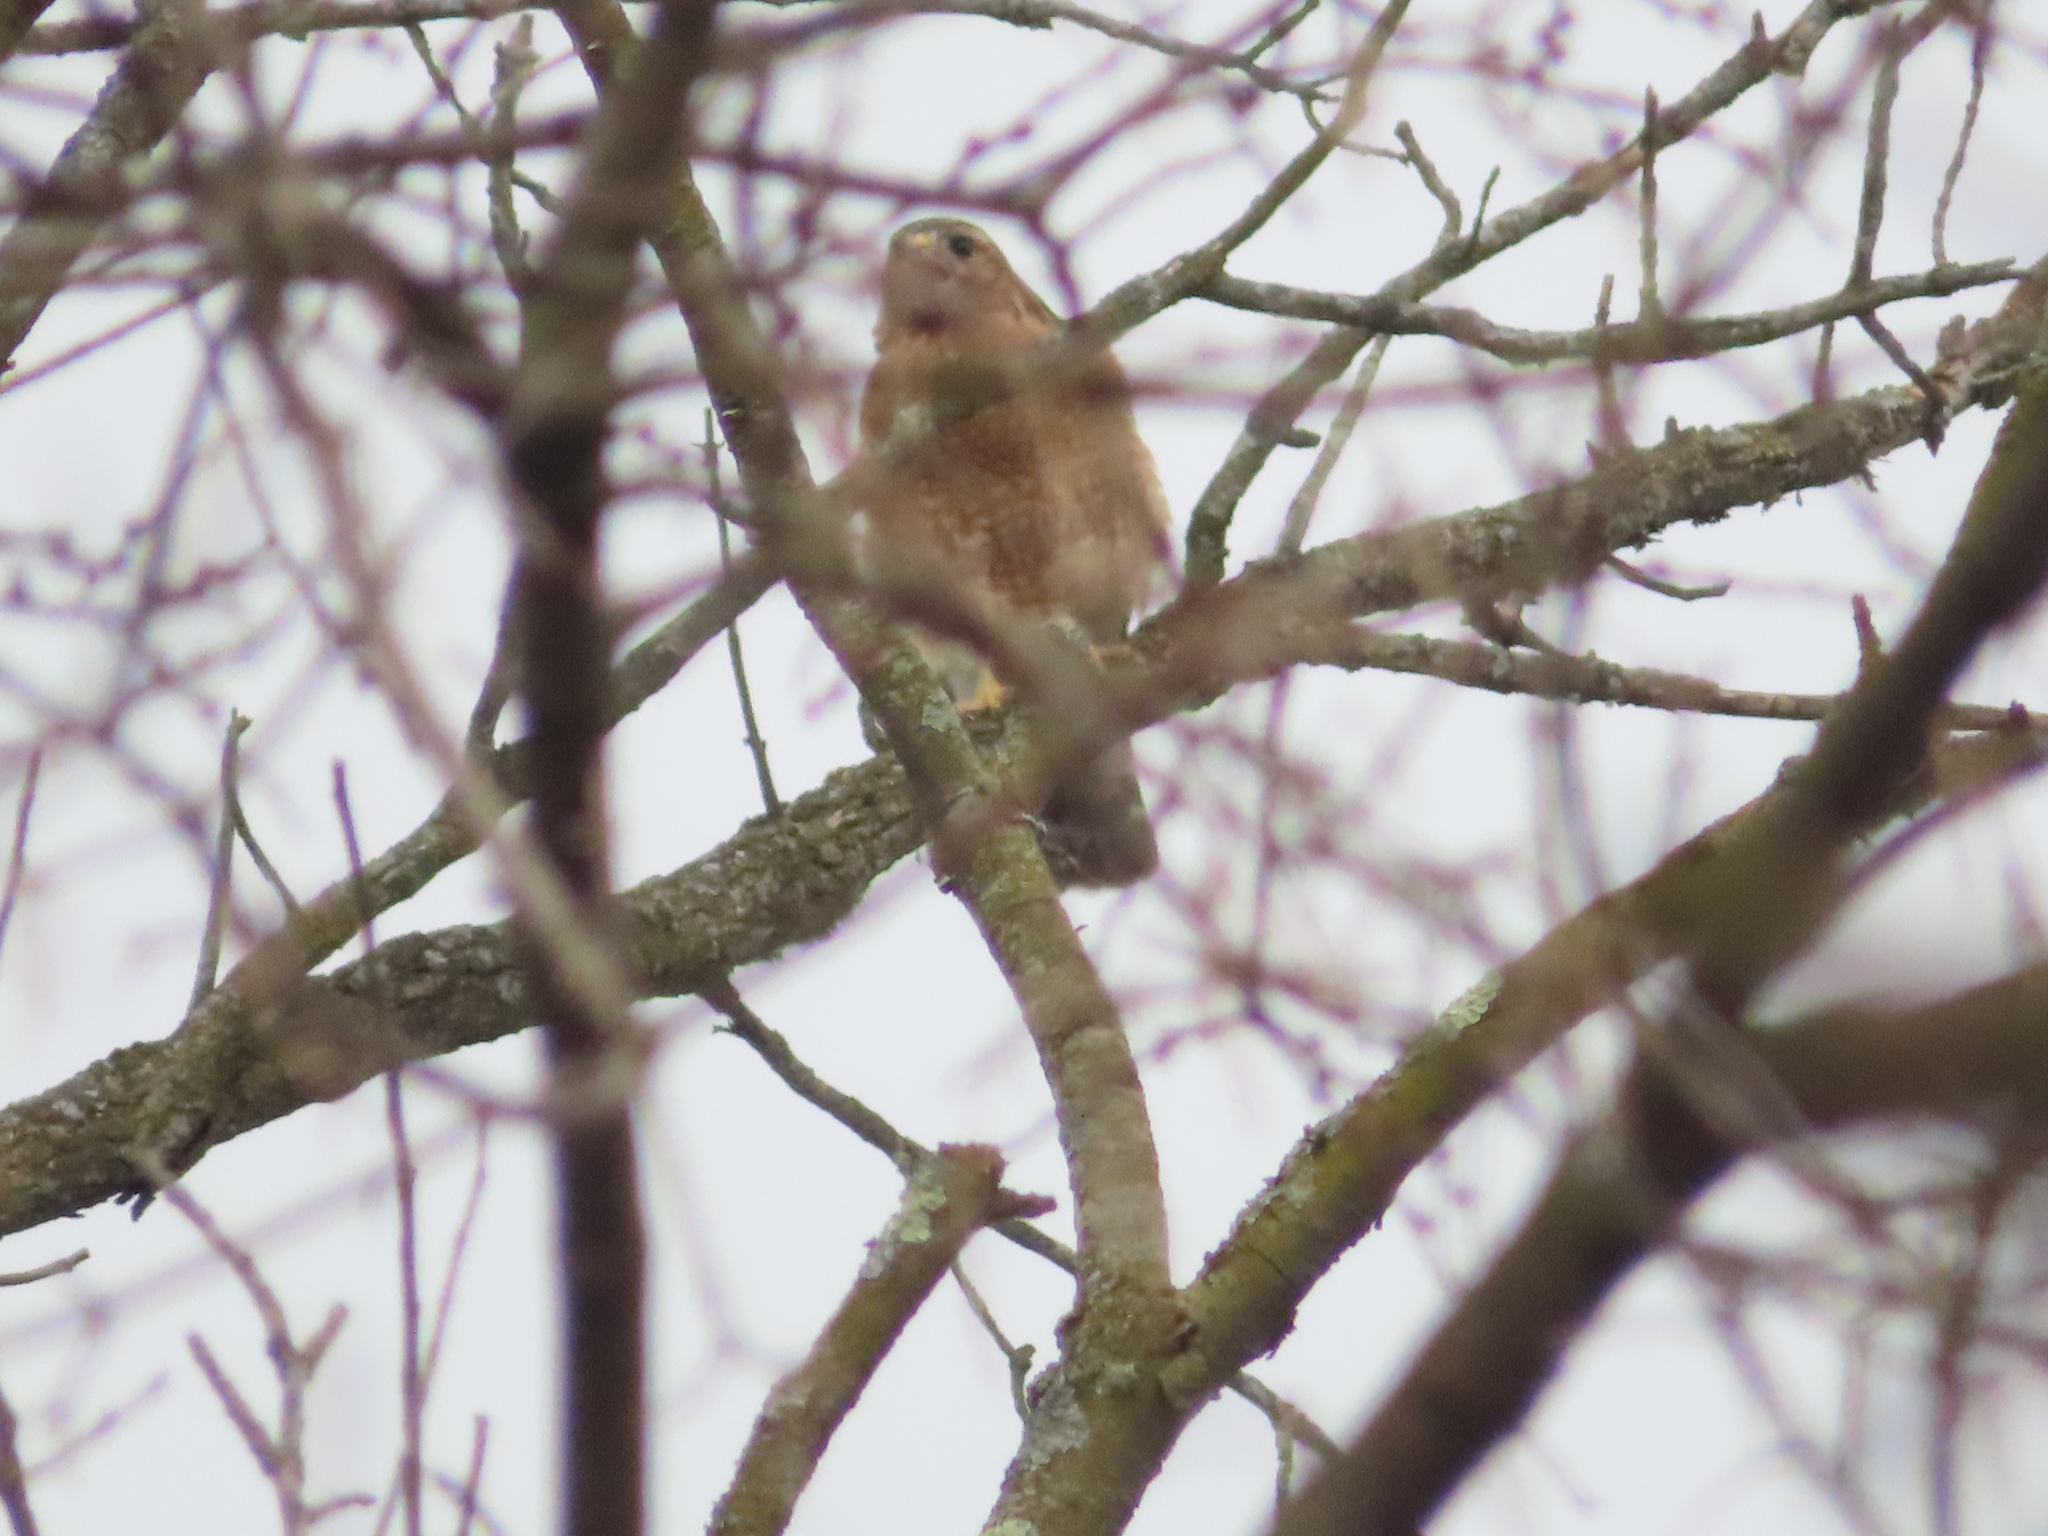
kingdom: Animalia
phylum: Chordata
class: Aves
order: Accipitriformes
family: Accipitridae
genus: Buteo
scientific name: Buteo lineatus
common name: Red-shouldered hawk
